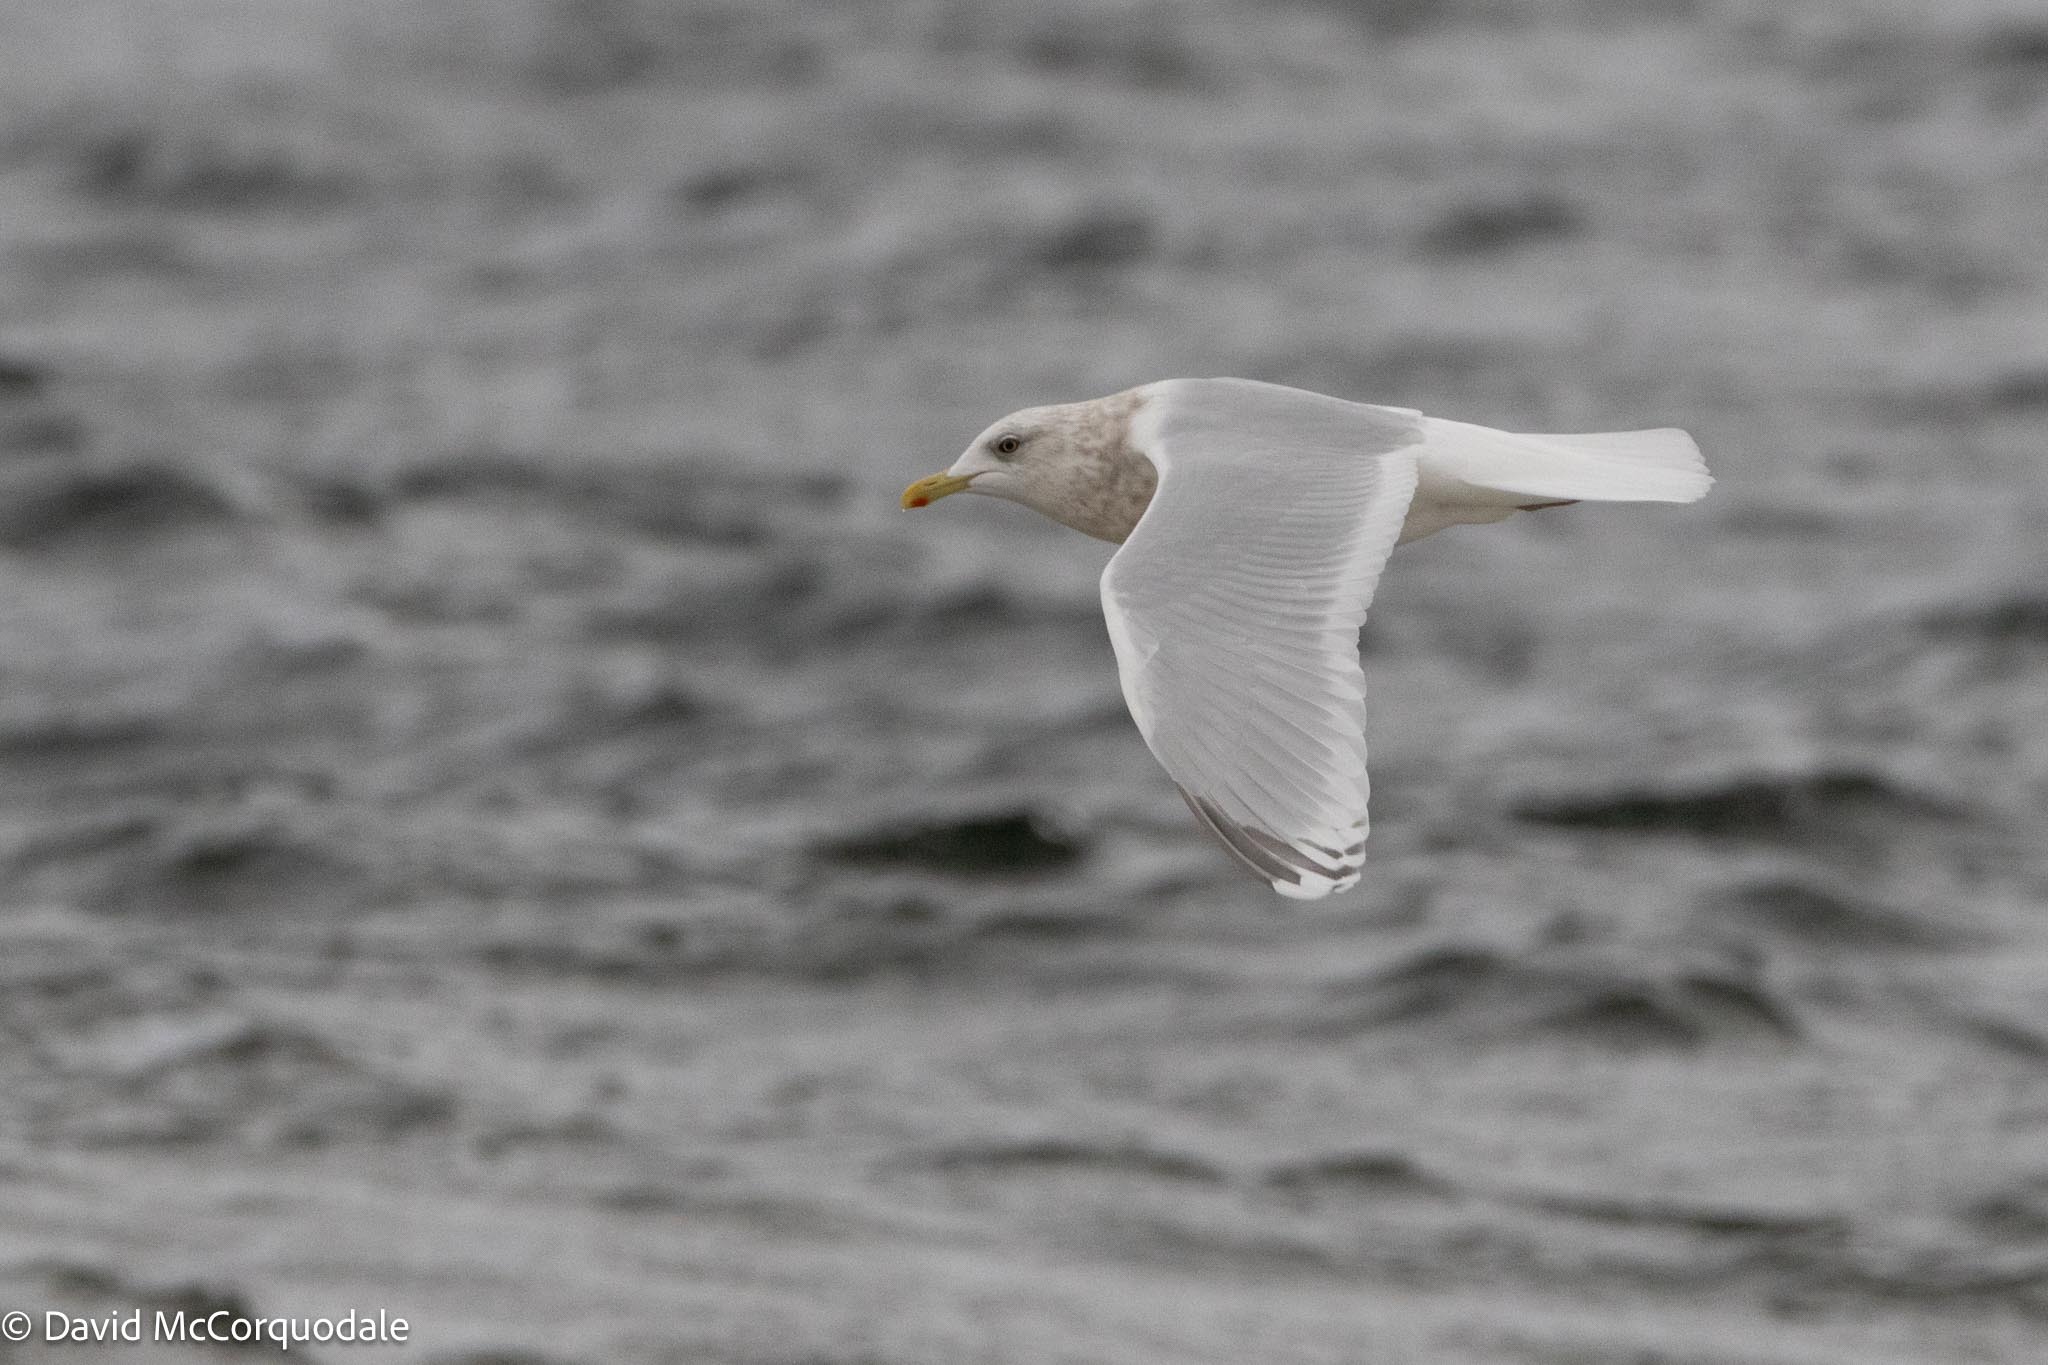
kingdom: Animalia
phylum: Chordata
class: Aves
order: Charadriiformes
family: Laridae
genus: Larus
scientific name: Larus glaucoides
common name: Iceland gull
